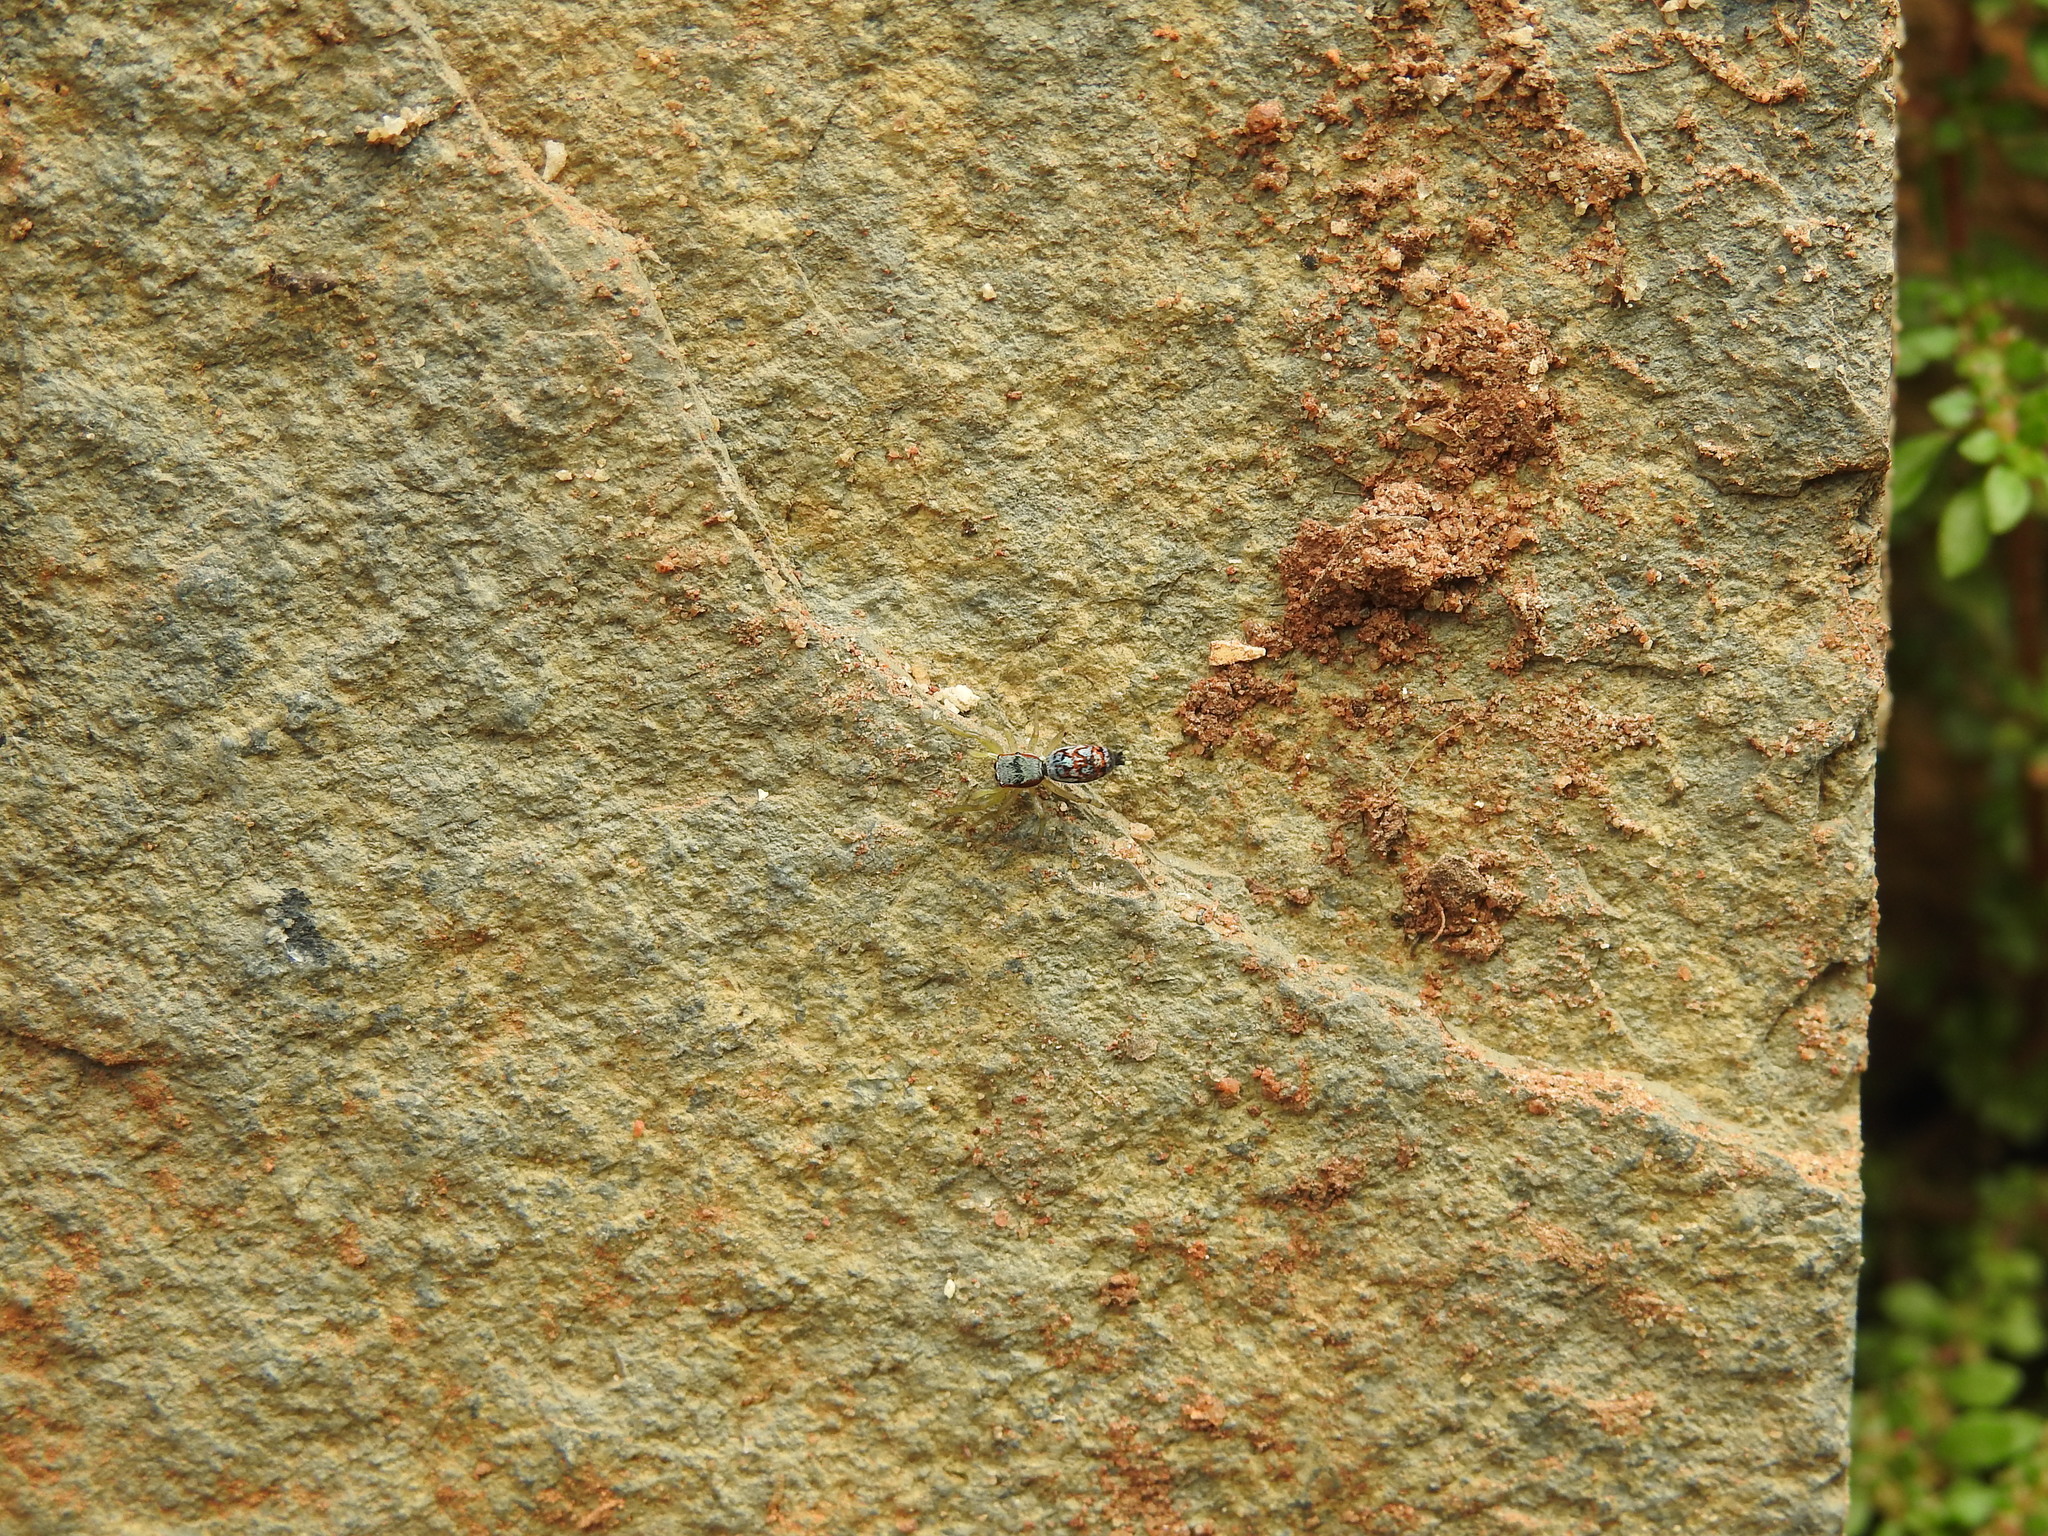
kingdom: Animalia
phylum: Arthropoda
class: Arachnida
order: Araneae
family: Salticidae
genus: Chrysilla
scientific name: Chrysilla volupe
